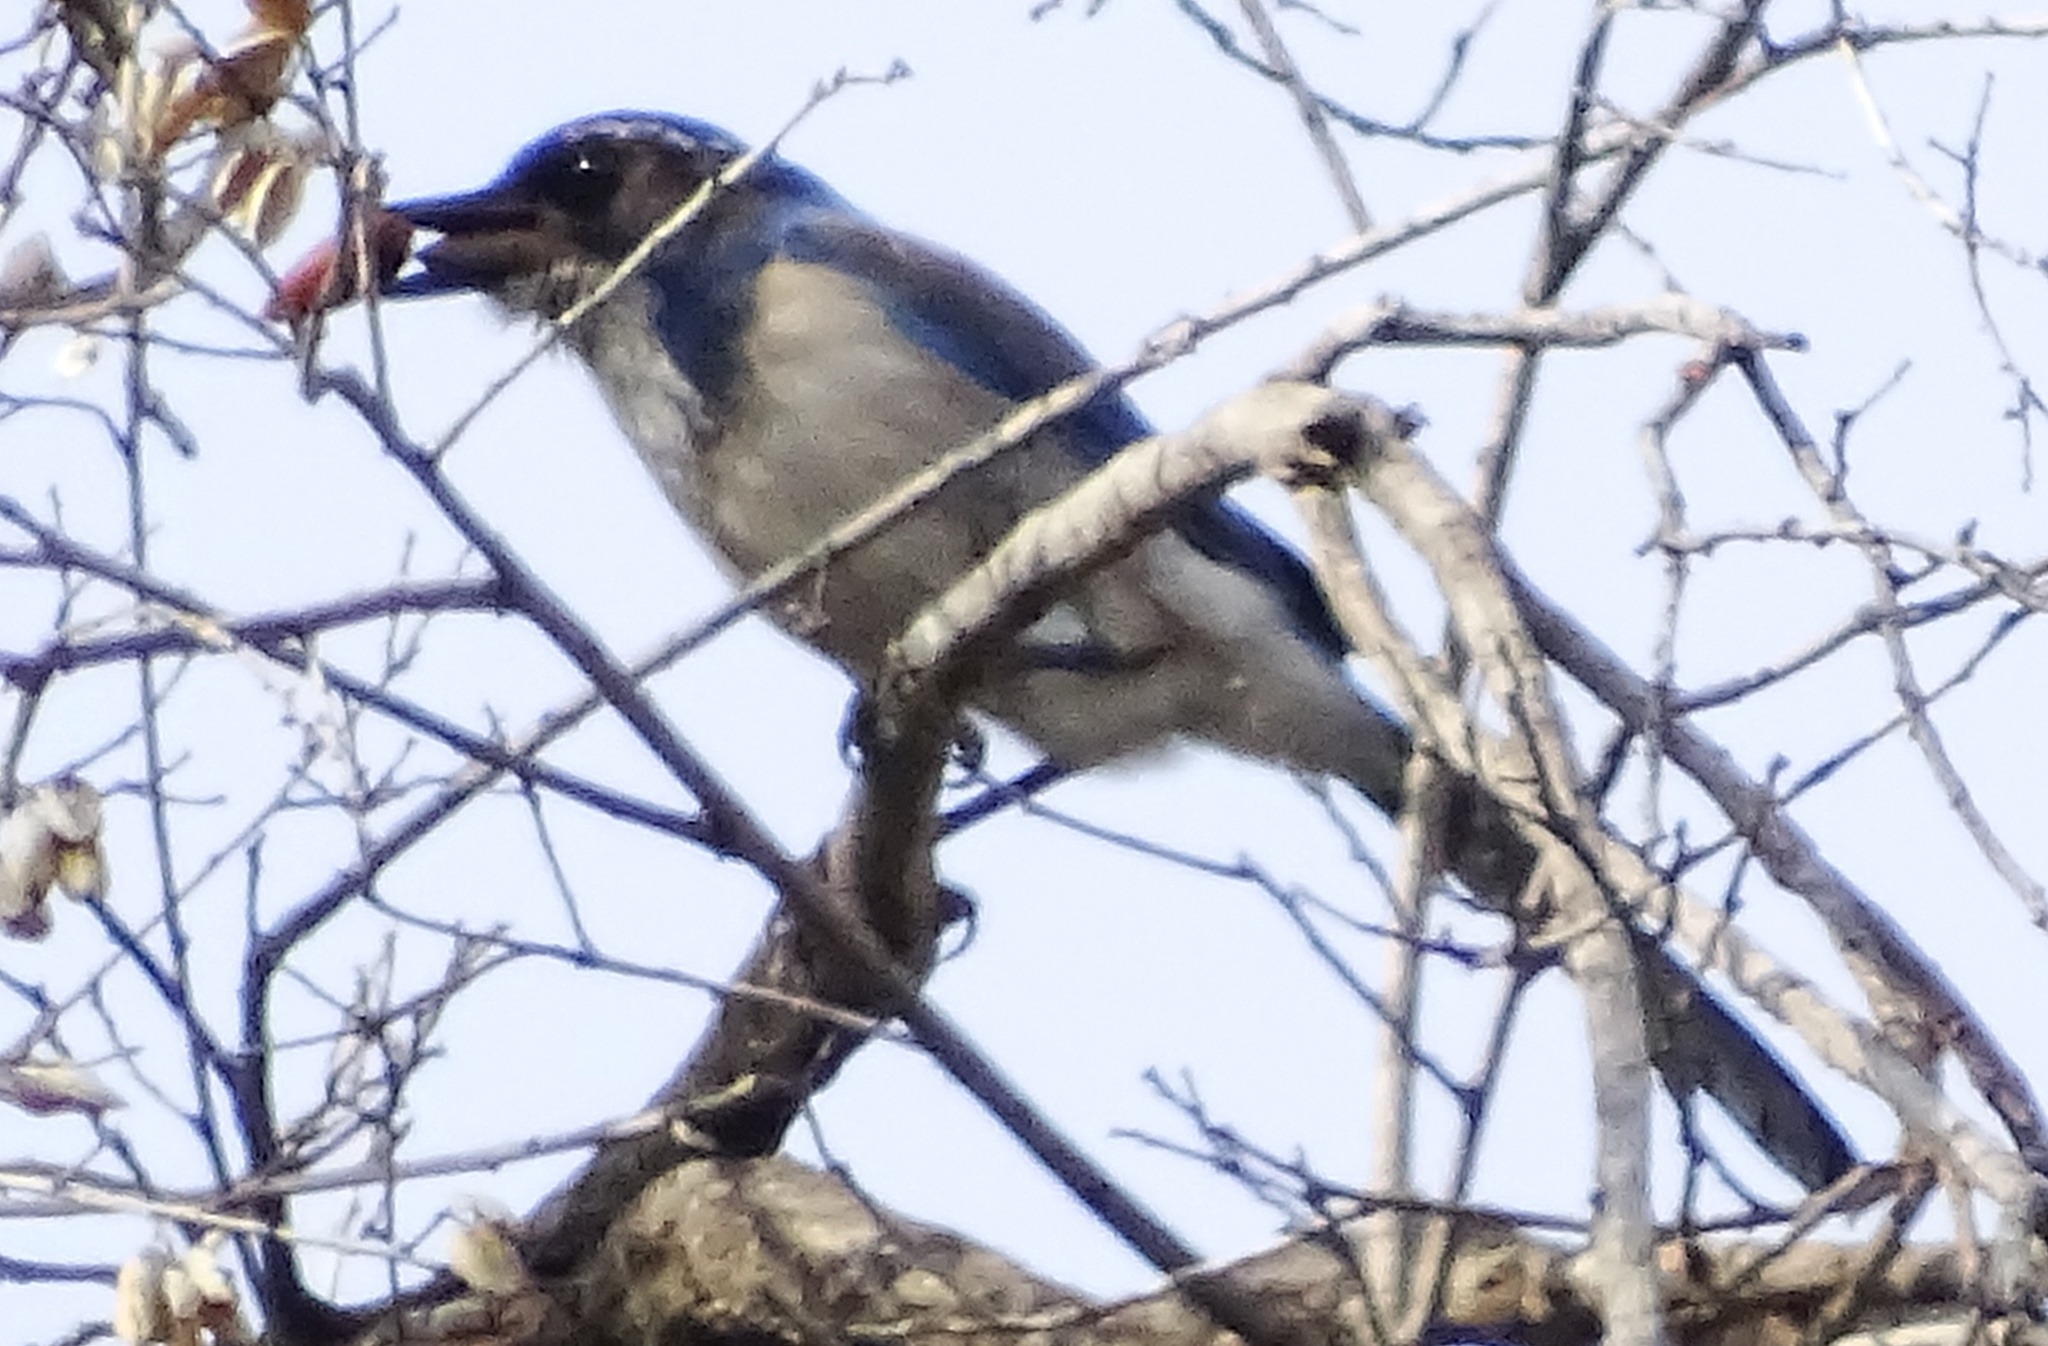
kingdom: Animalia
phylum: Chordata
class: Aves
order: Passeriformes
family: Corvidae
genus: Aphelocoma
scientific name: Aphelocoma californica
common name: California scrub-jay
